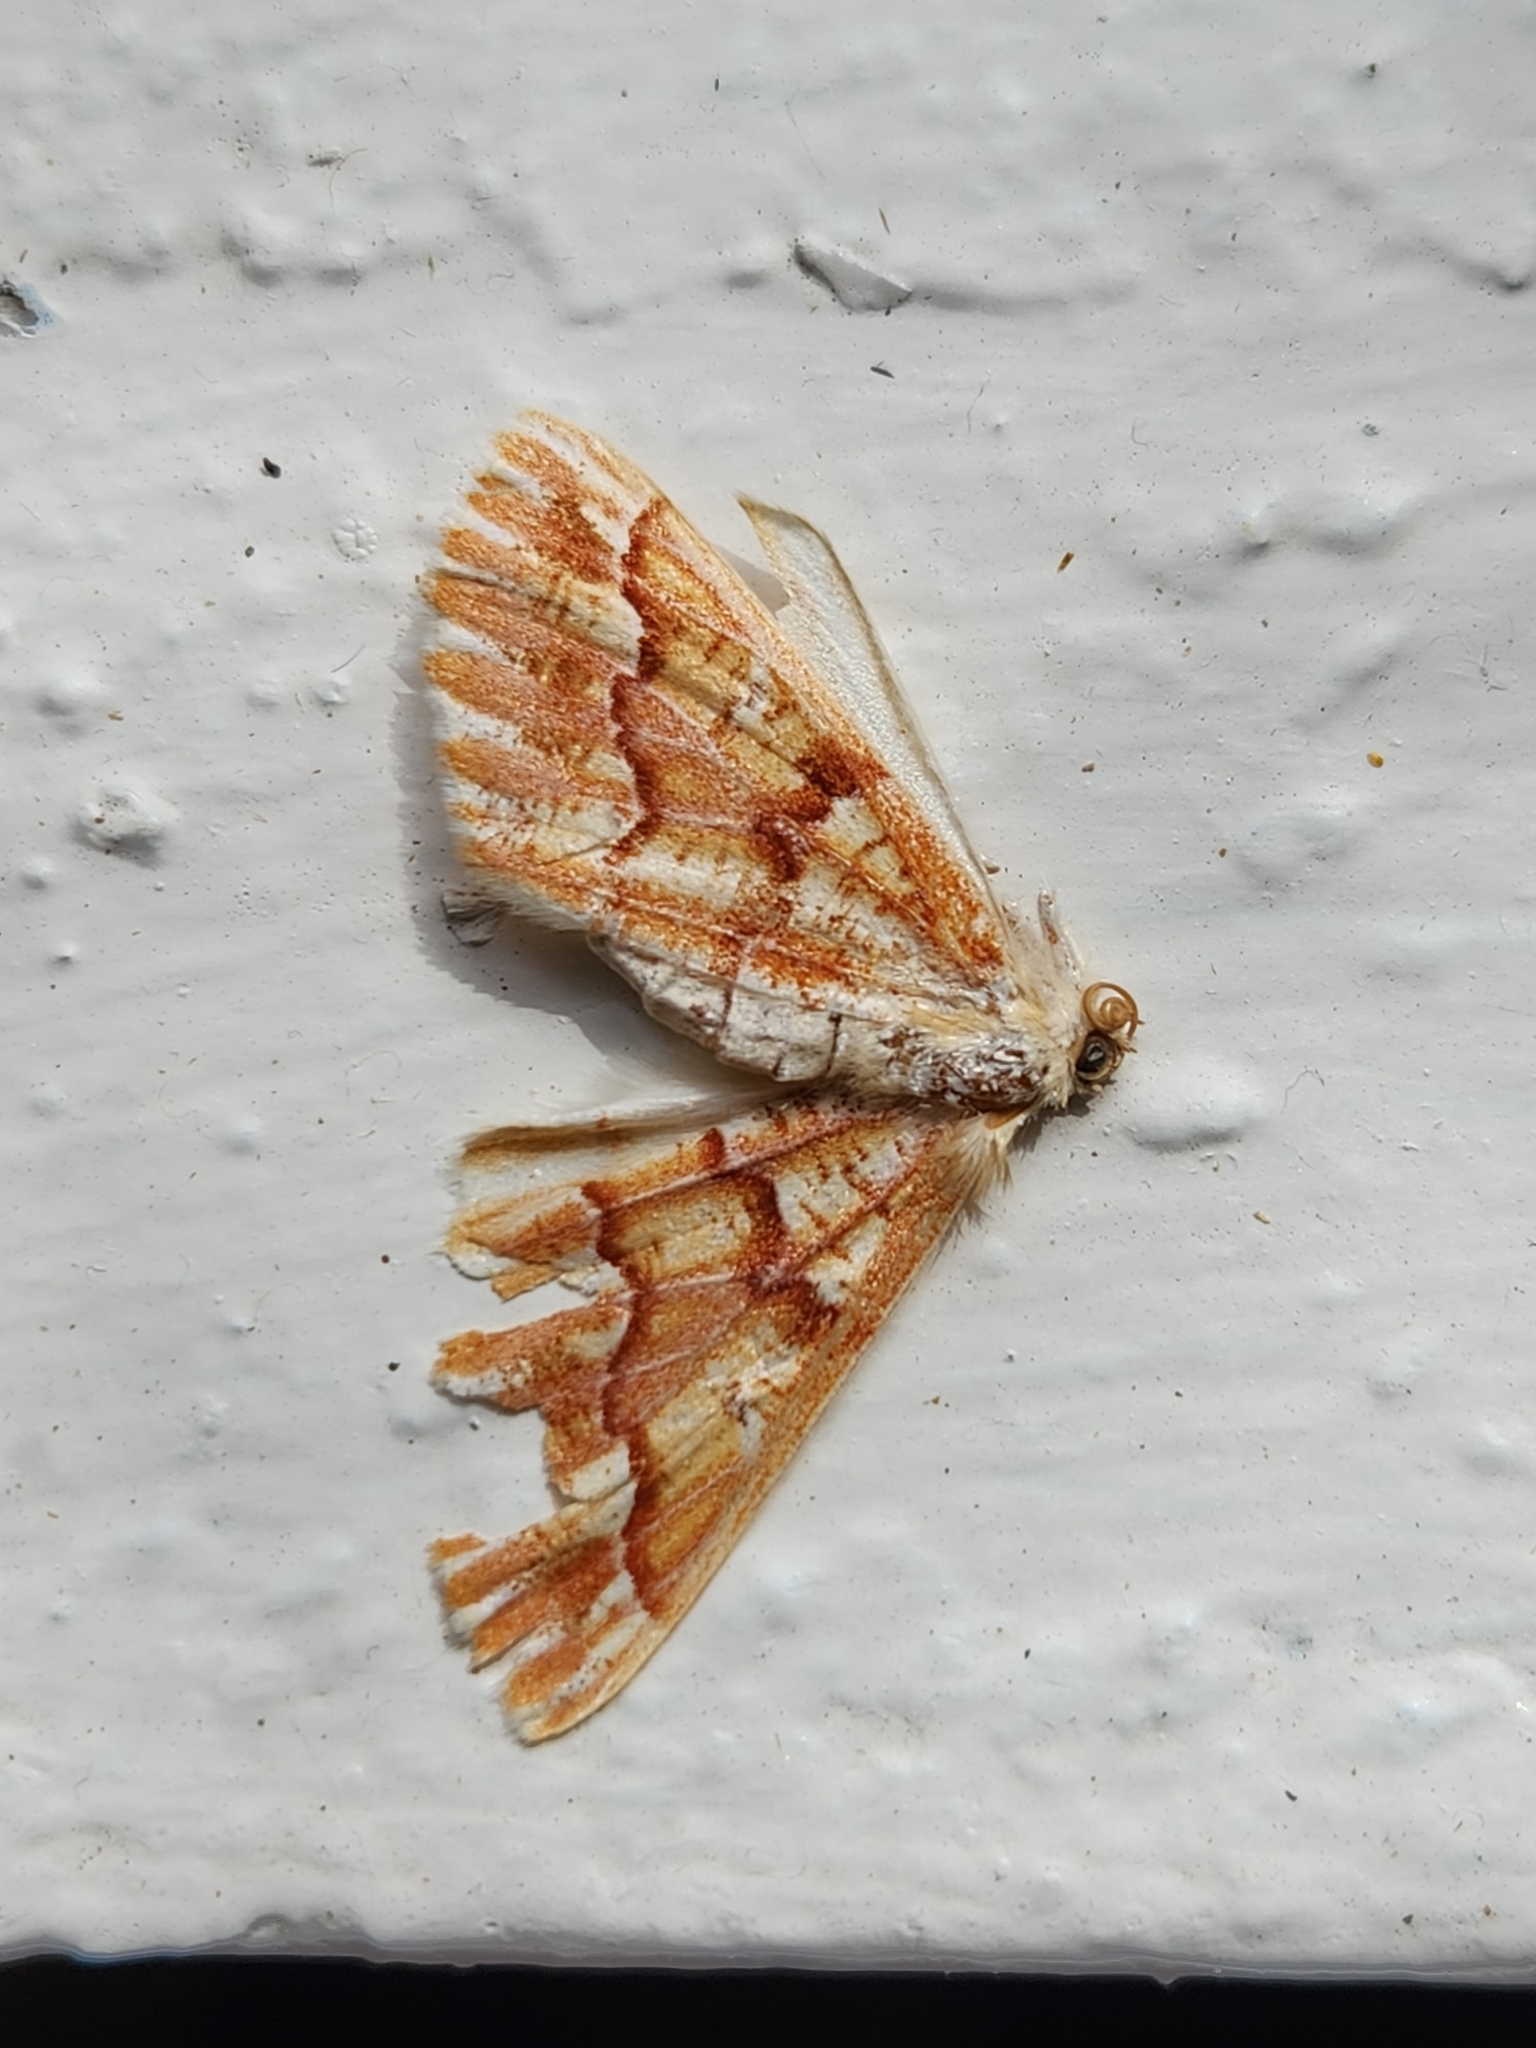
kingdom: Animalia
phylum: Arthropoda
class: Insecta
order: Lepidoptera
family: Geometridae
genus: Caripeta
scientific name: Caripeta aequaliaria
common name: Red girdle moth
